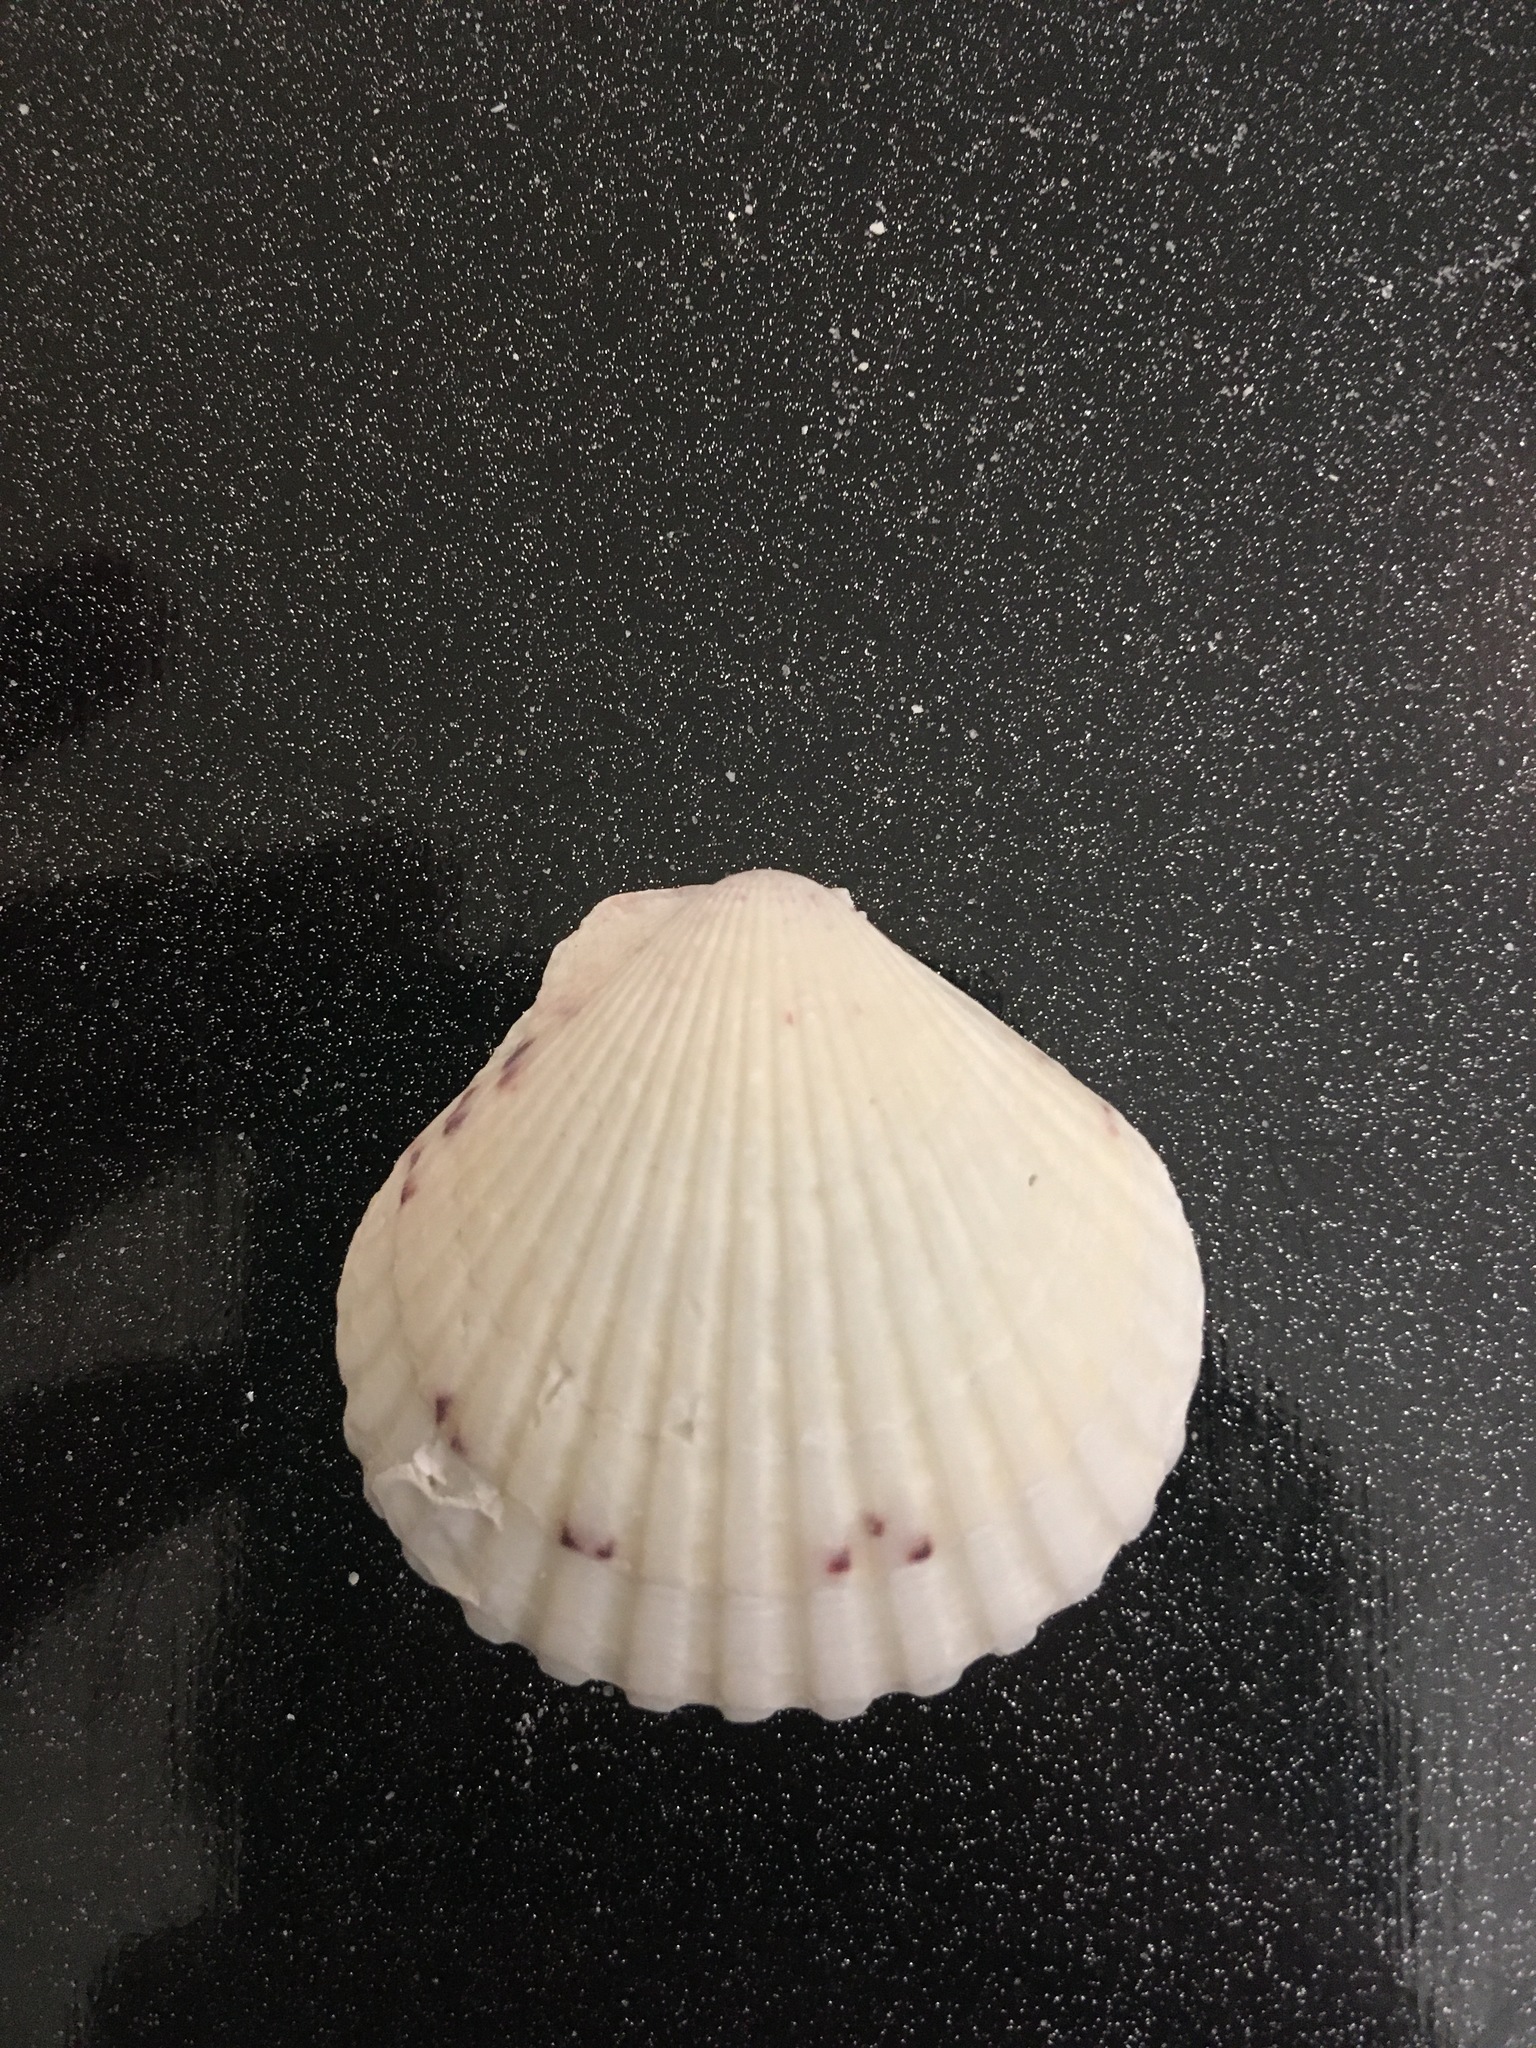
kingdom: Animalia
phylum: Mollusca
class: Bivalvia
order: Pectinida
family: Pectinidae
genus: Argopecten
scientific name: Argopecten gibbus
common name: Atlantic calico scallop
